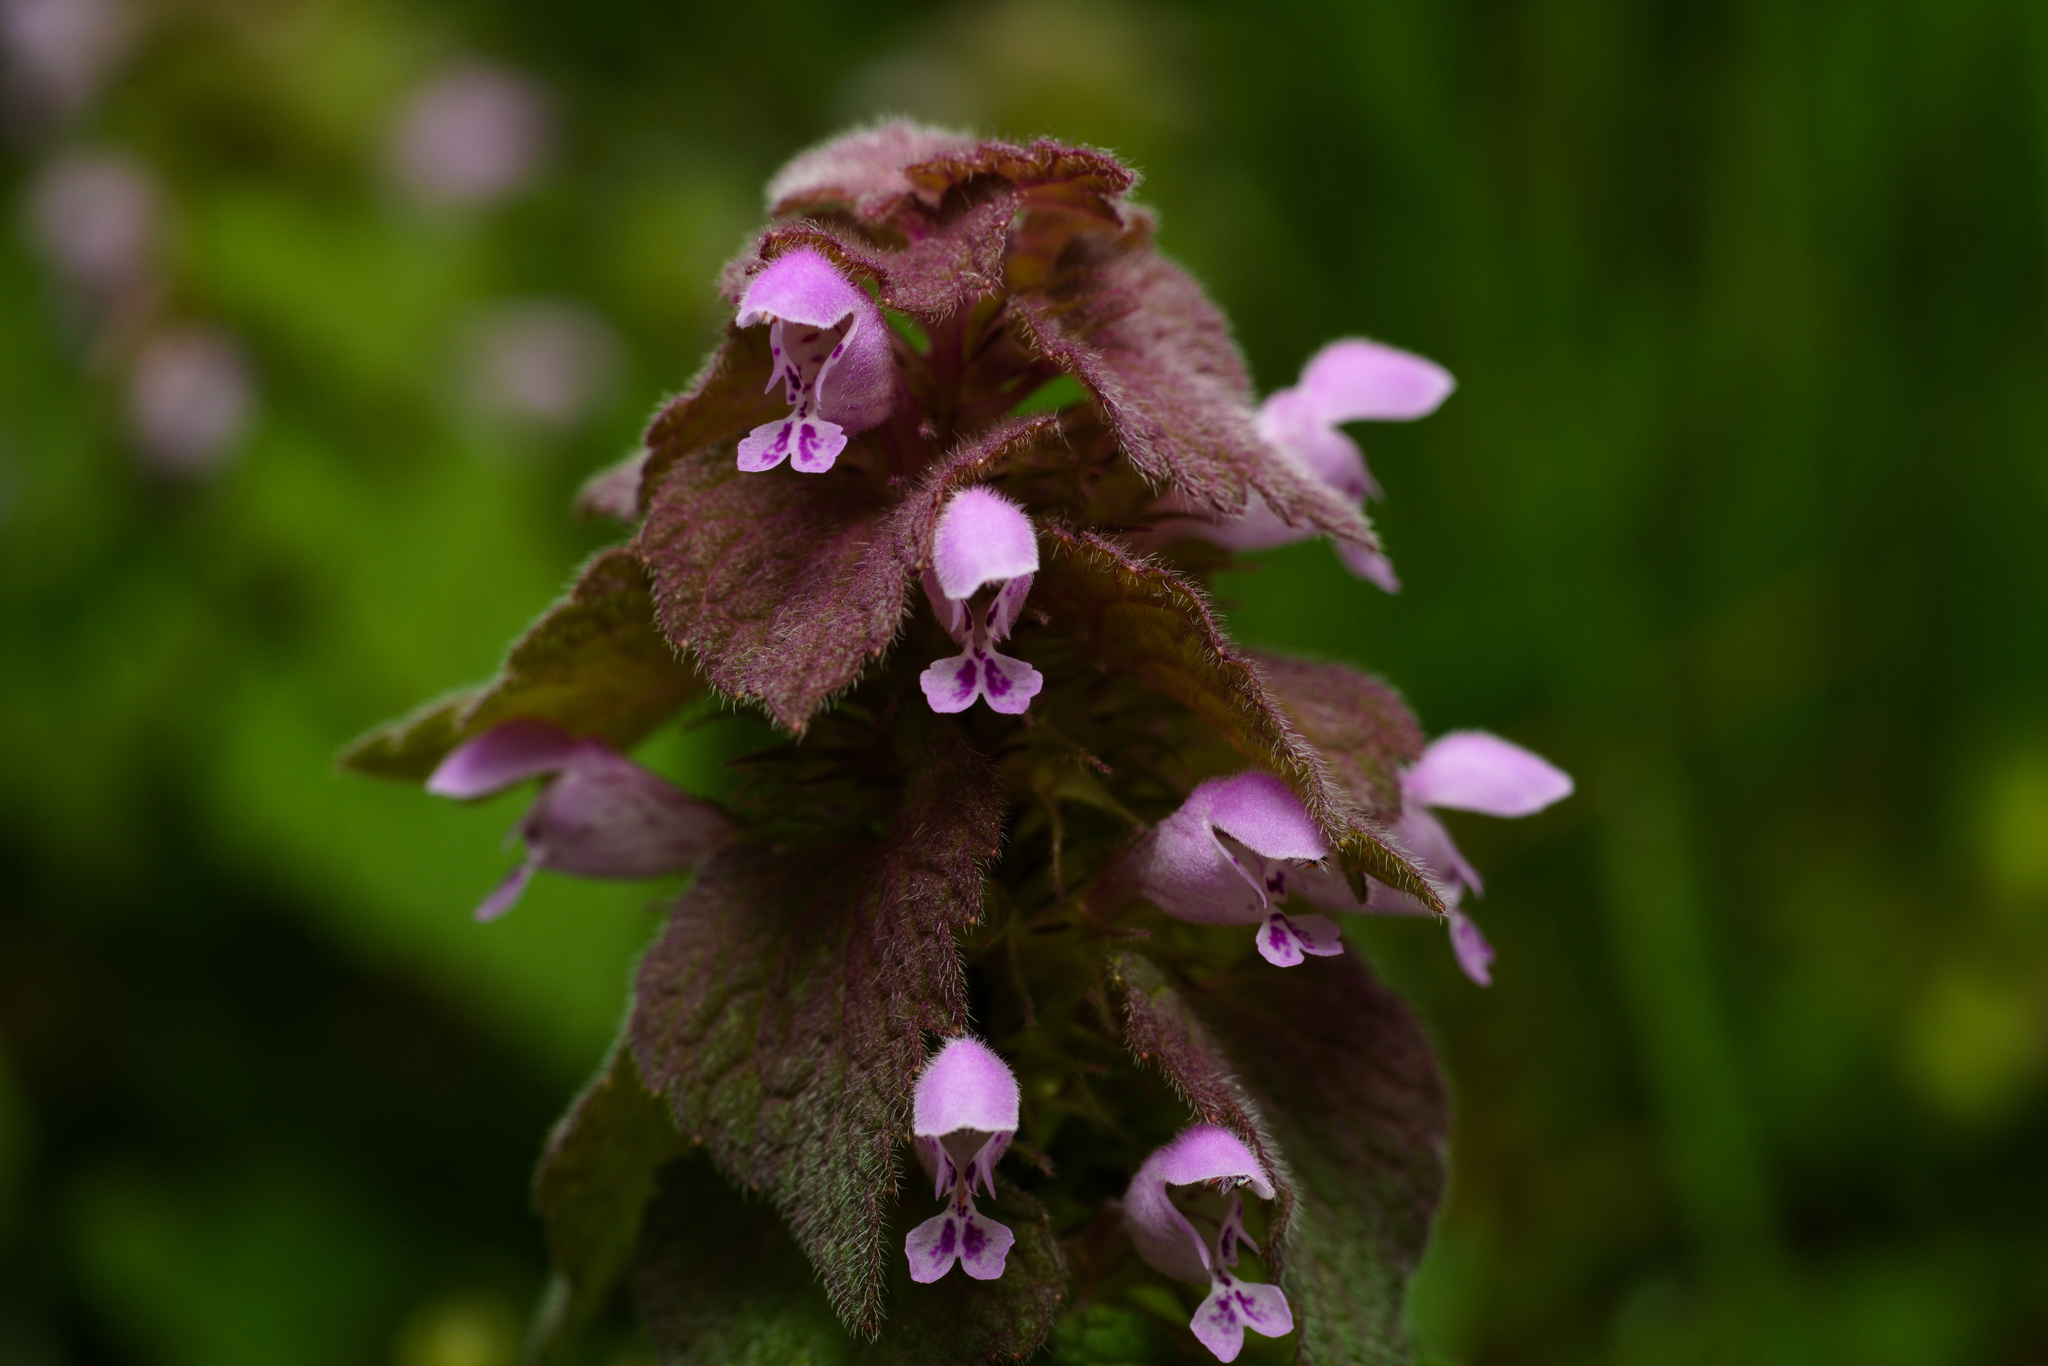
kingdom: Plantae
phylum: Tracheophyta
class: Magnoliopsida
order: Lamiales
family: Lamiaceae
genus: Lamium
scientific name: Lamium purpureum
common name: Red dead-nettle
